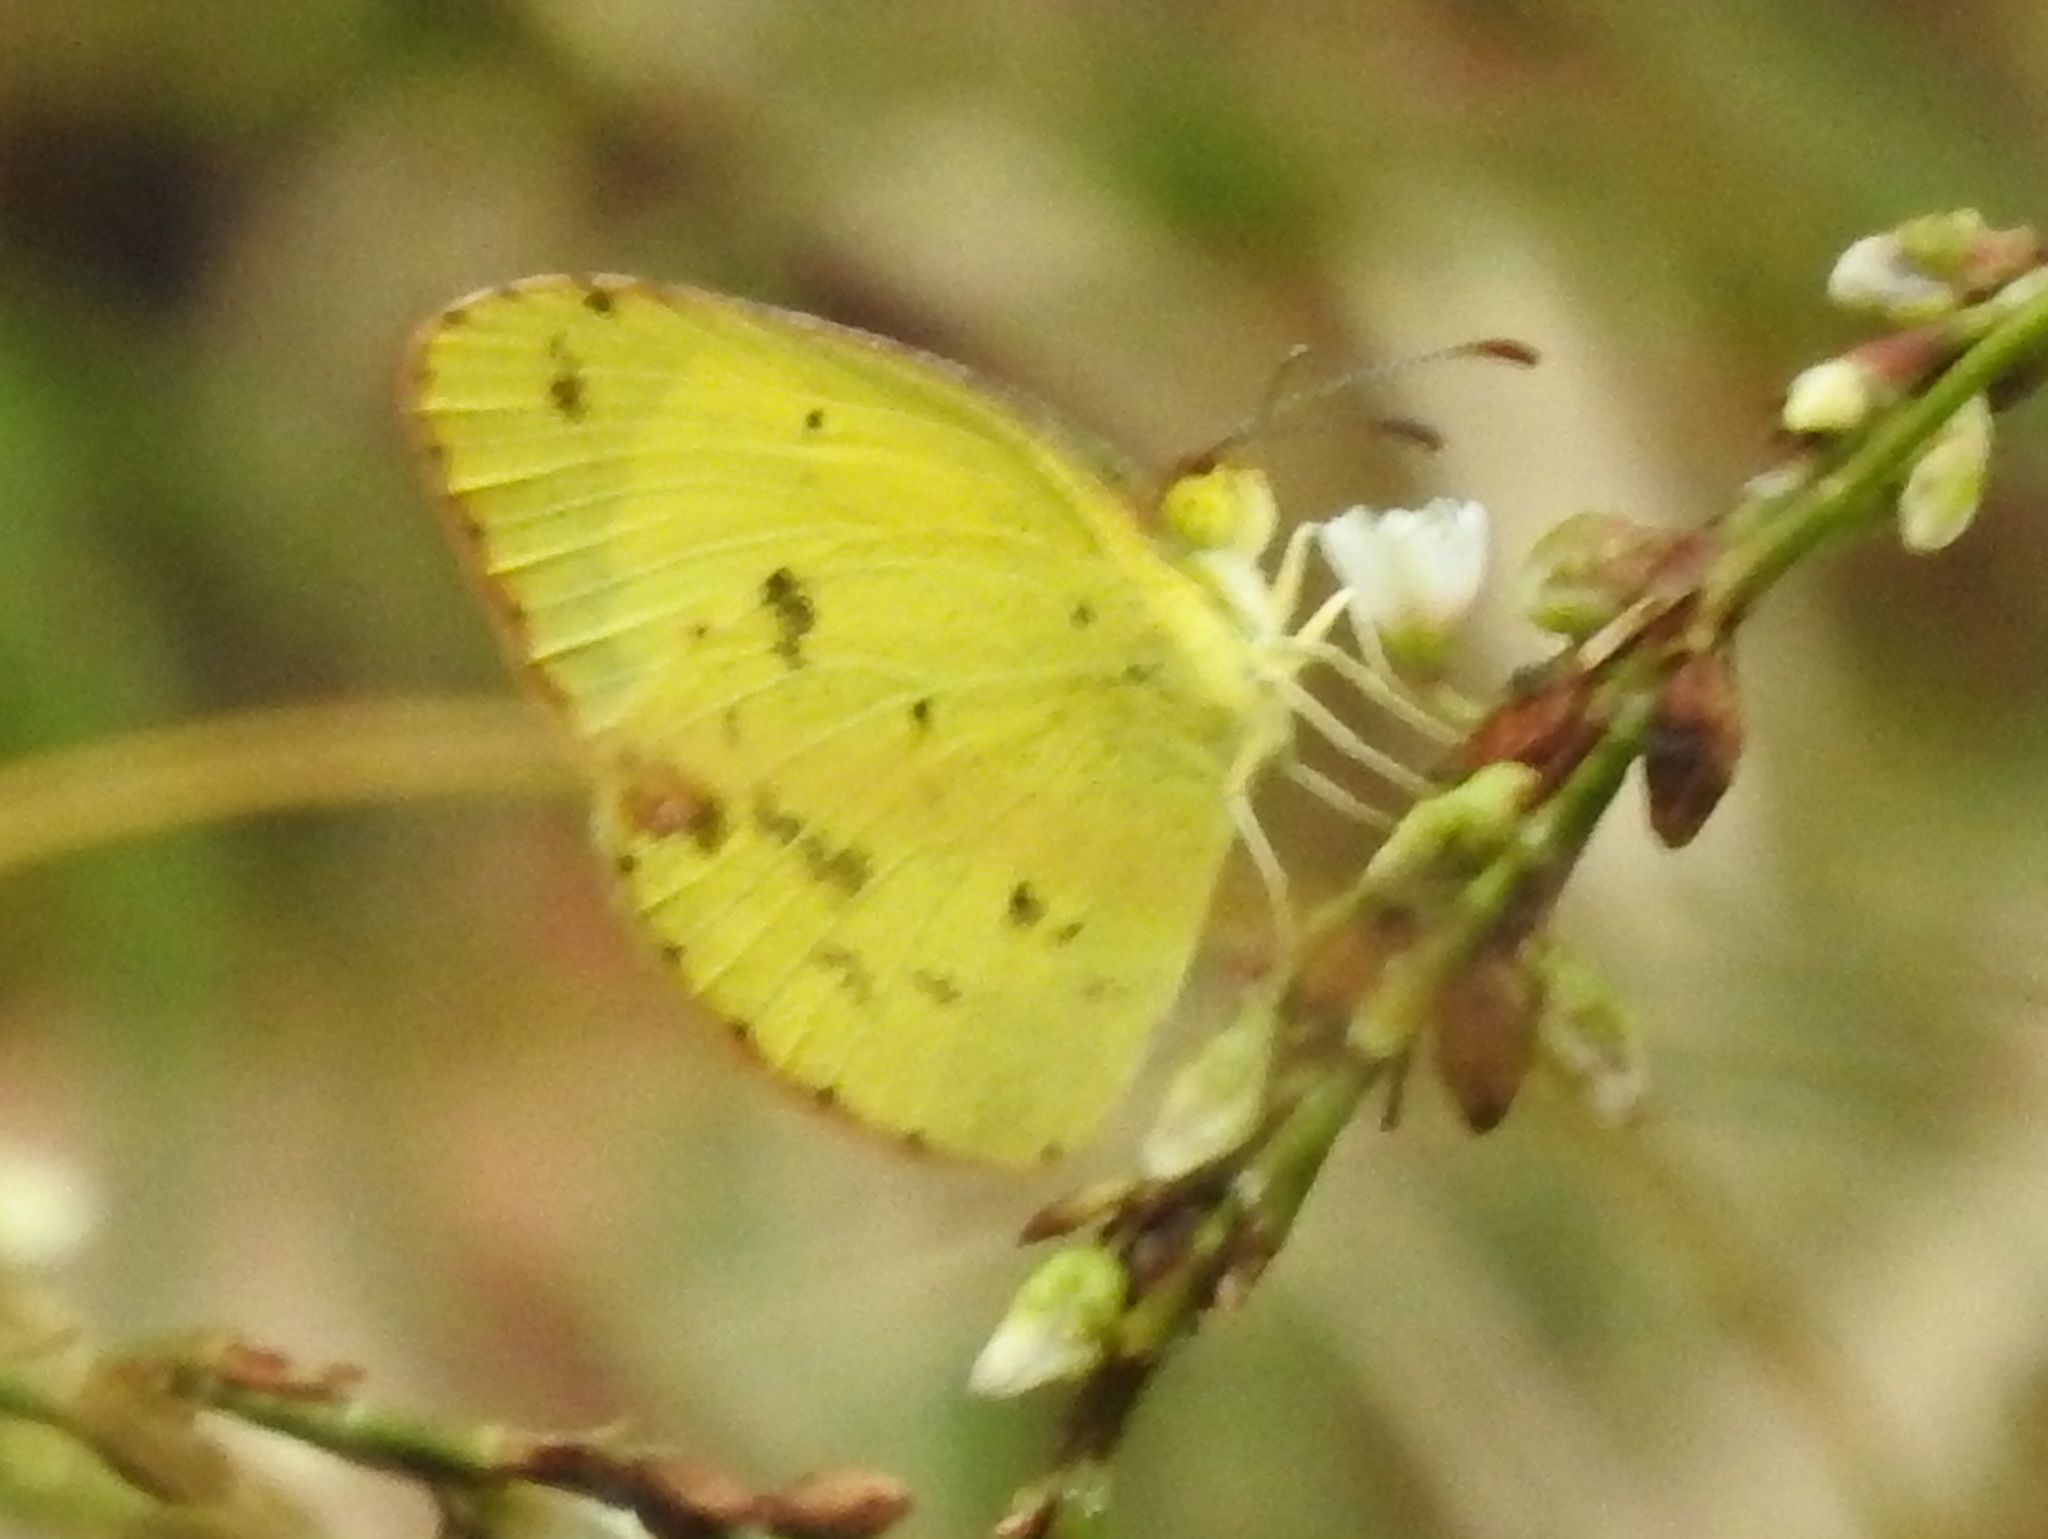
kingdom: Animalia
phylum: Arthropoda
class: Insecta
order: Lepidoptera
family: Pieridae
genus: Pyrisitia
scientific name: Pyrisitia lisa
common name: Little yellow
